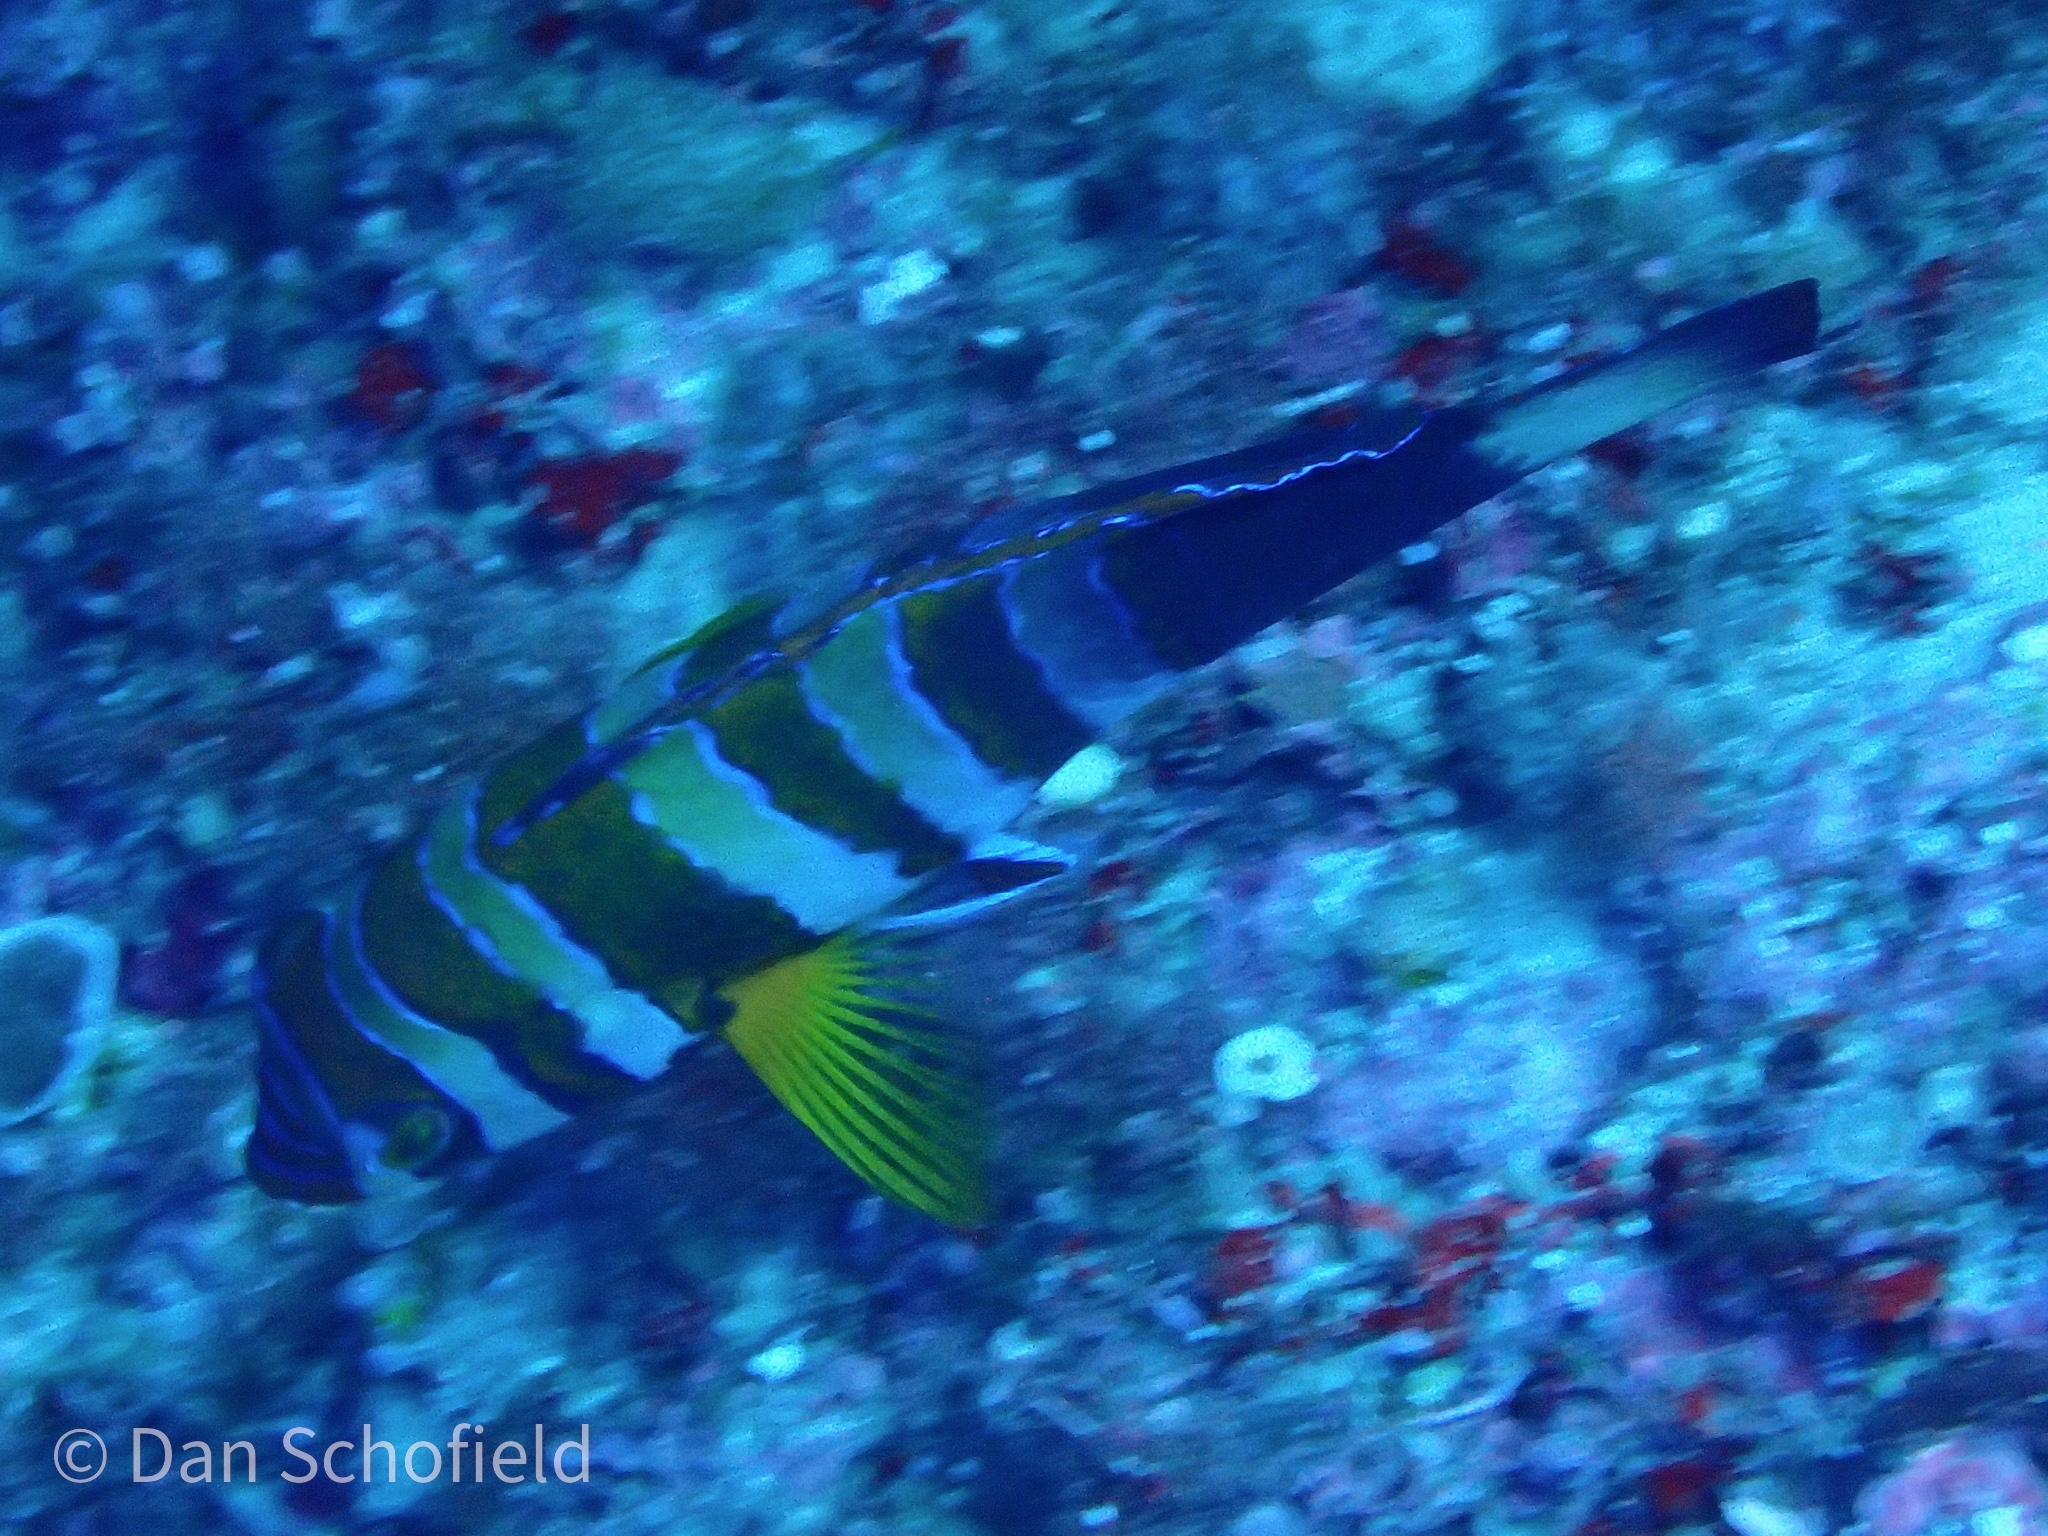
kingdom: Animalia
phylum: Chordata
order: Perciformes
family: Labridae
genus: Choerodon
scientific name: Choerodon fasciatus
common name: Harlequin tuskfish
